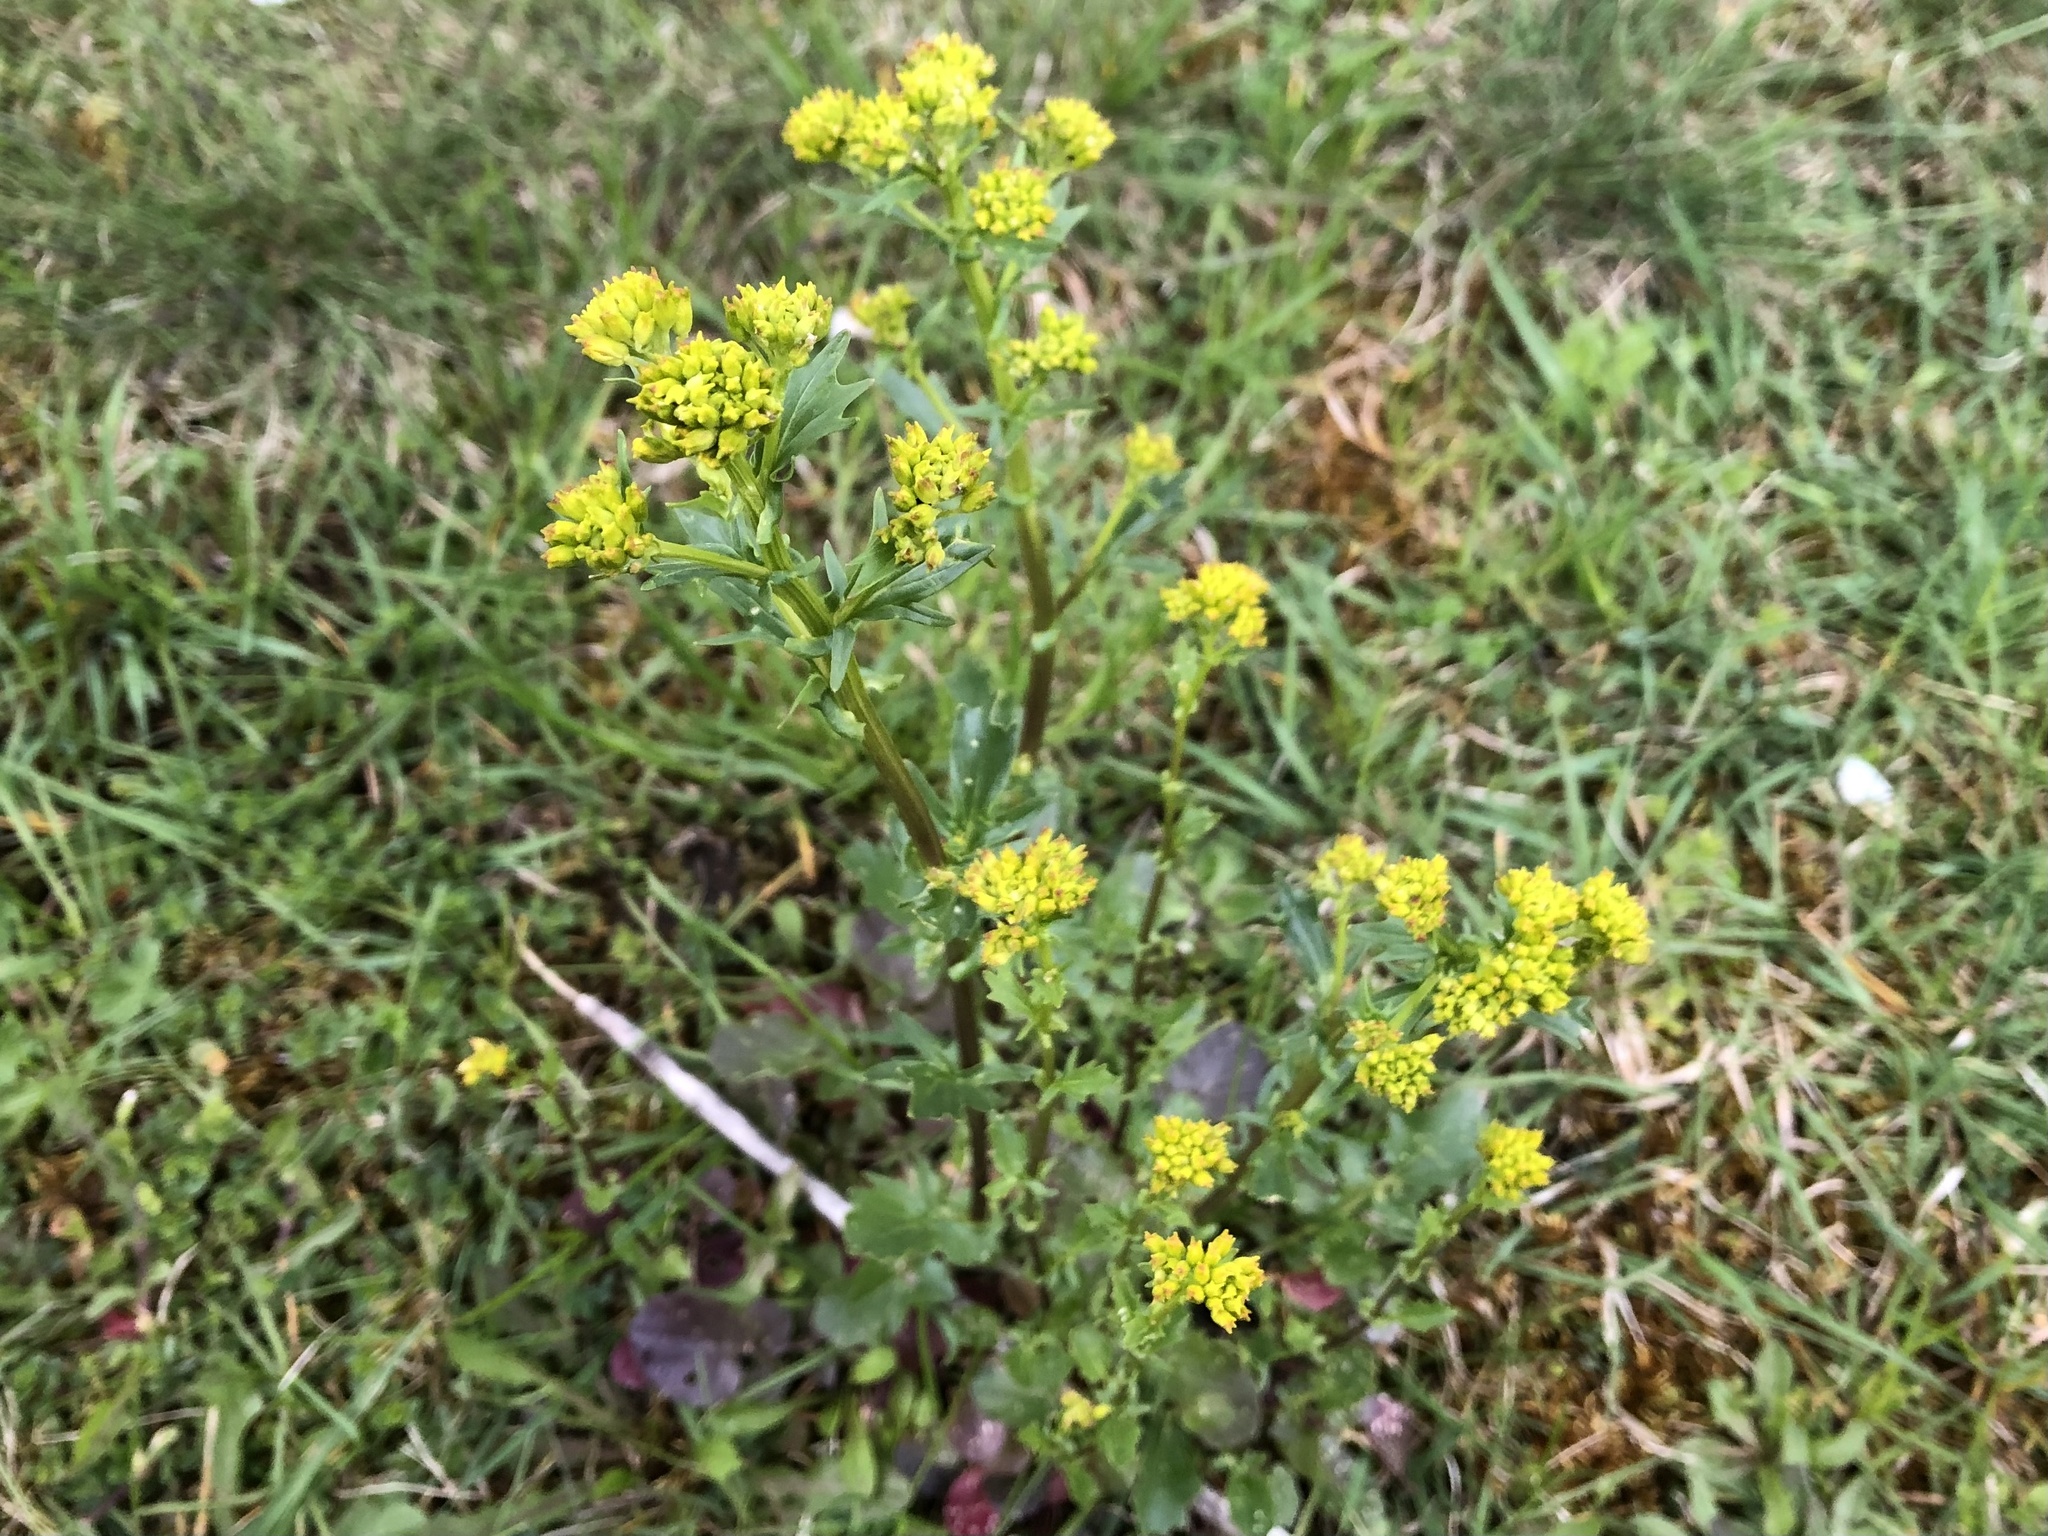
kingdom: Plantae
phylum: Tracheophyta
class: Magnoliopsida
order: Brassicales
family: Brassicaceae
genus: Barbarea
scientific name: Barbarea vulgaris
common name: Cressy-greens
